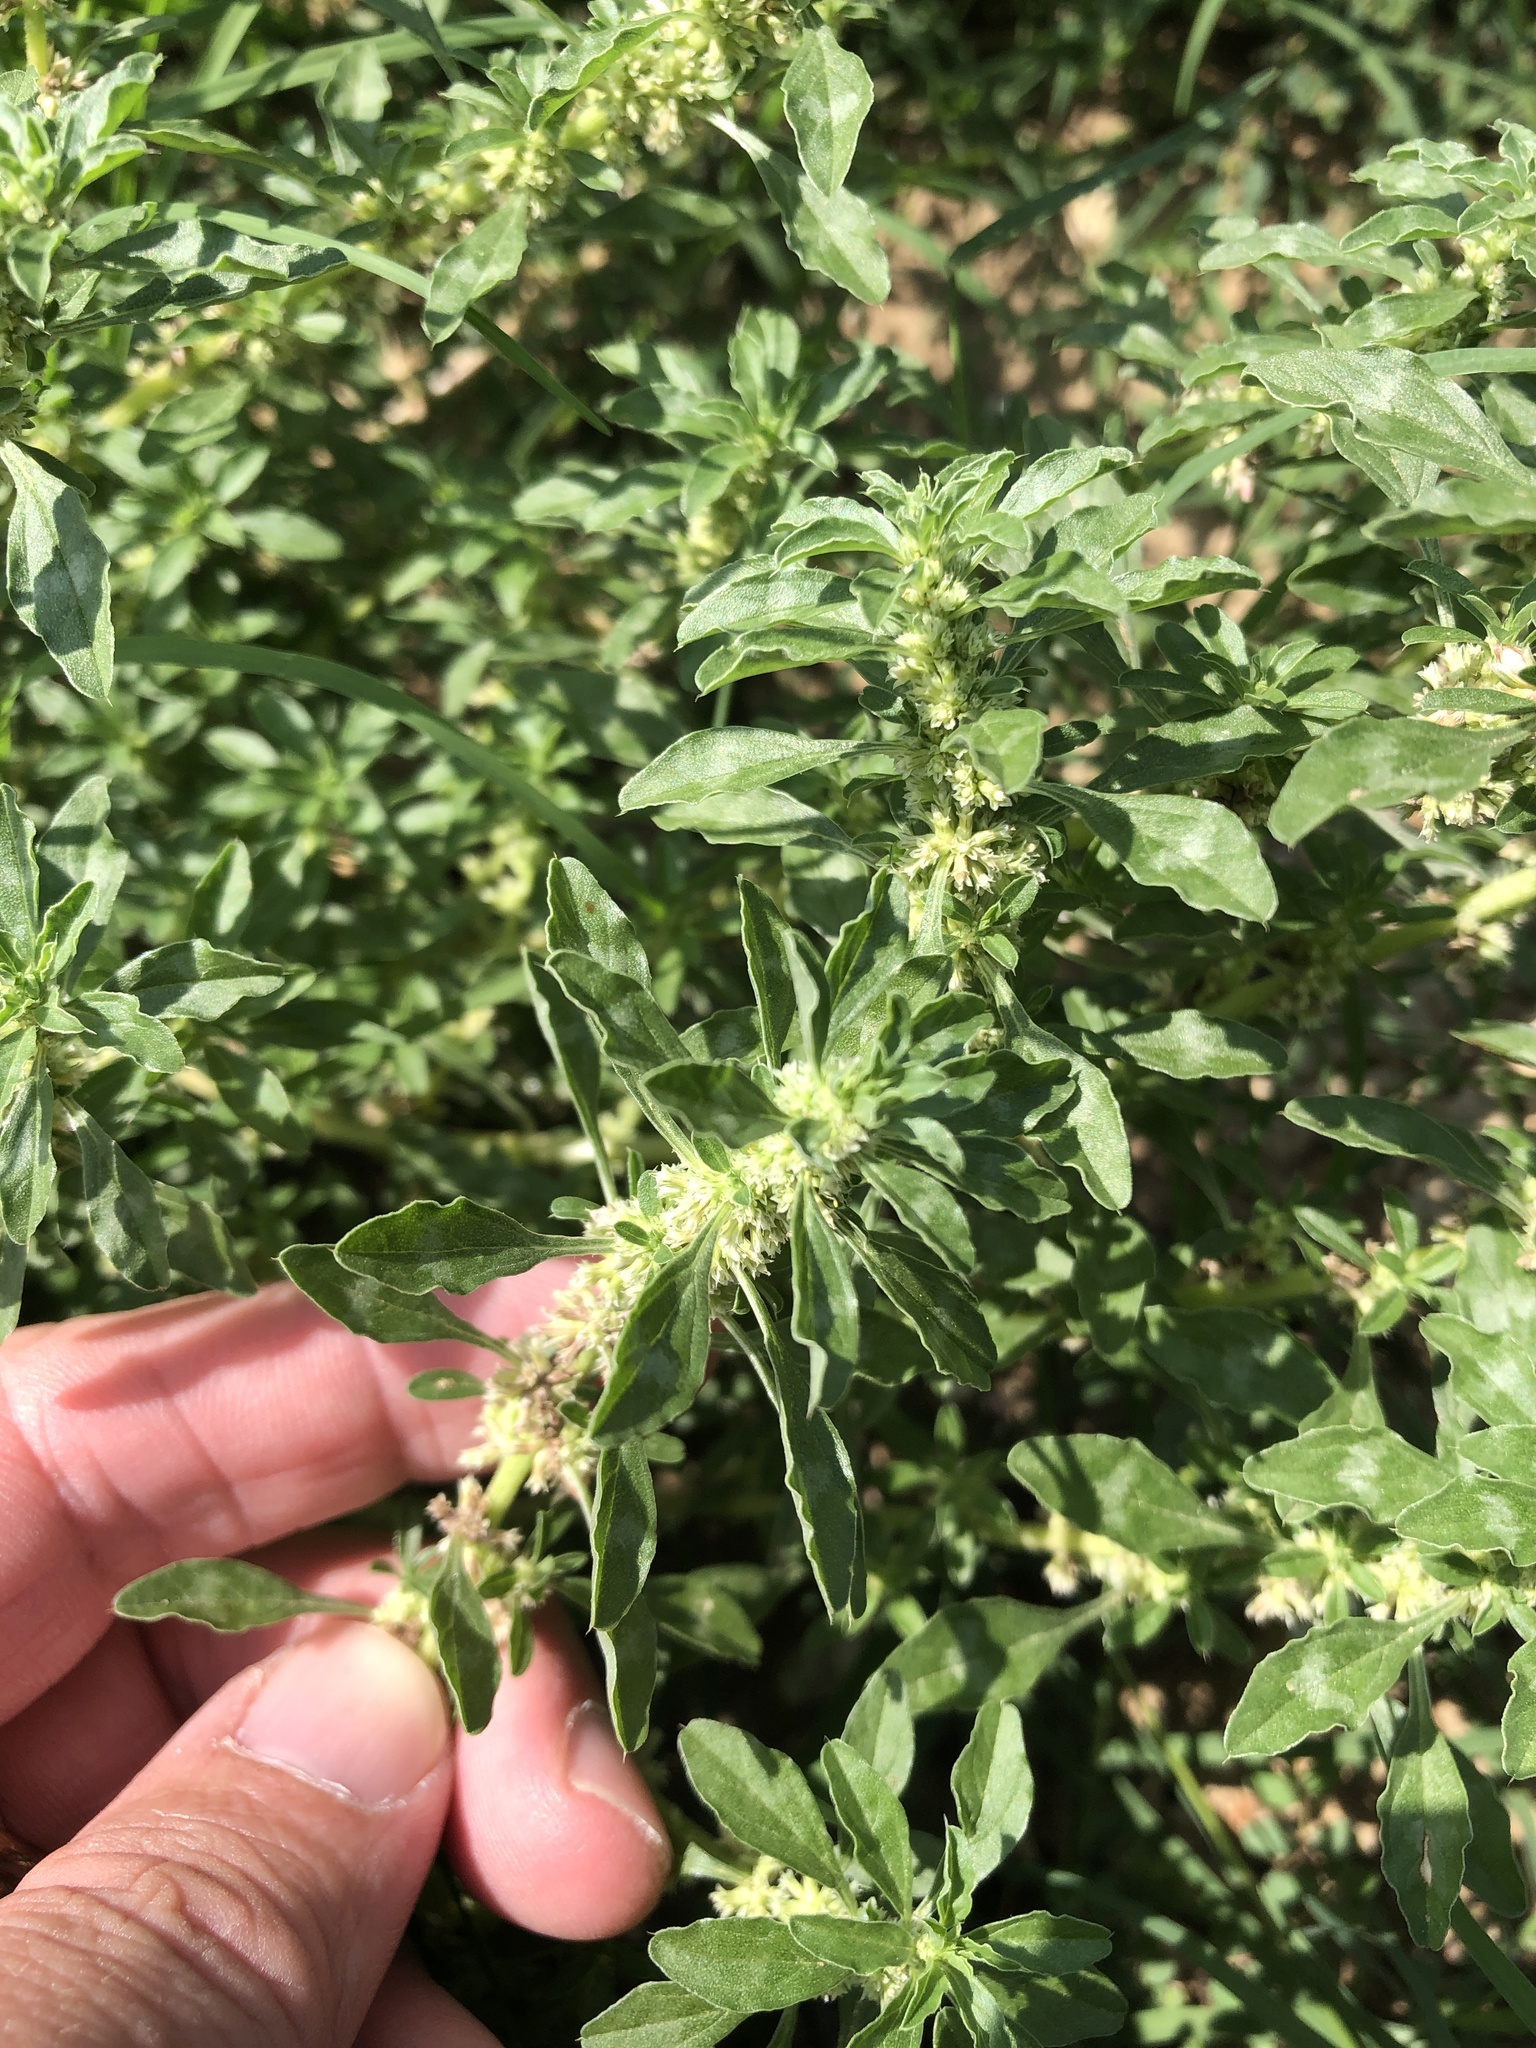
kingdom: Plantae
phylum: Tracheophyta
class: Magnoliopsida
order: Caryophyllales
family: Amaranthaceae
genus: Amaranthus
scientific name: Amaranthus blitoides
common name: Prostrate pigweed
